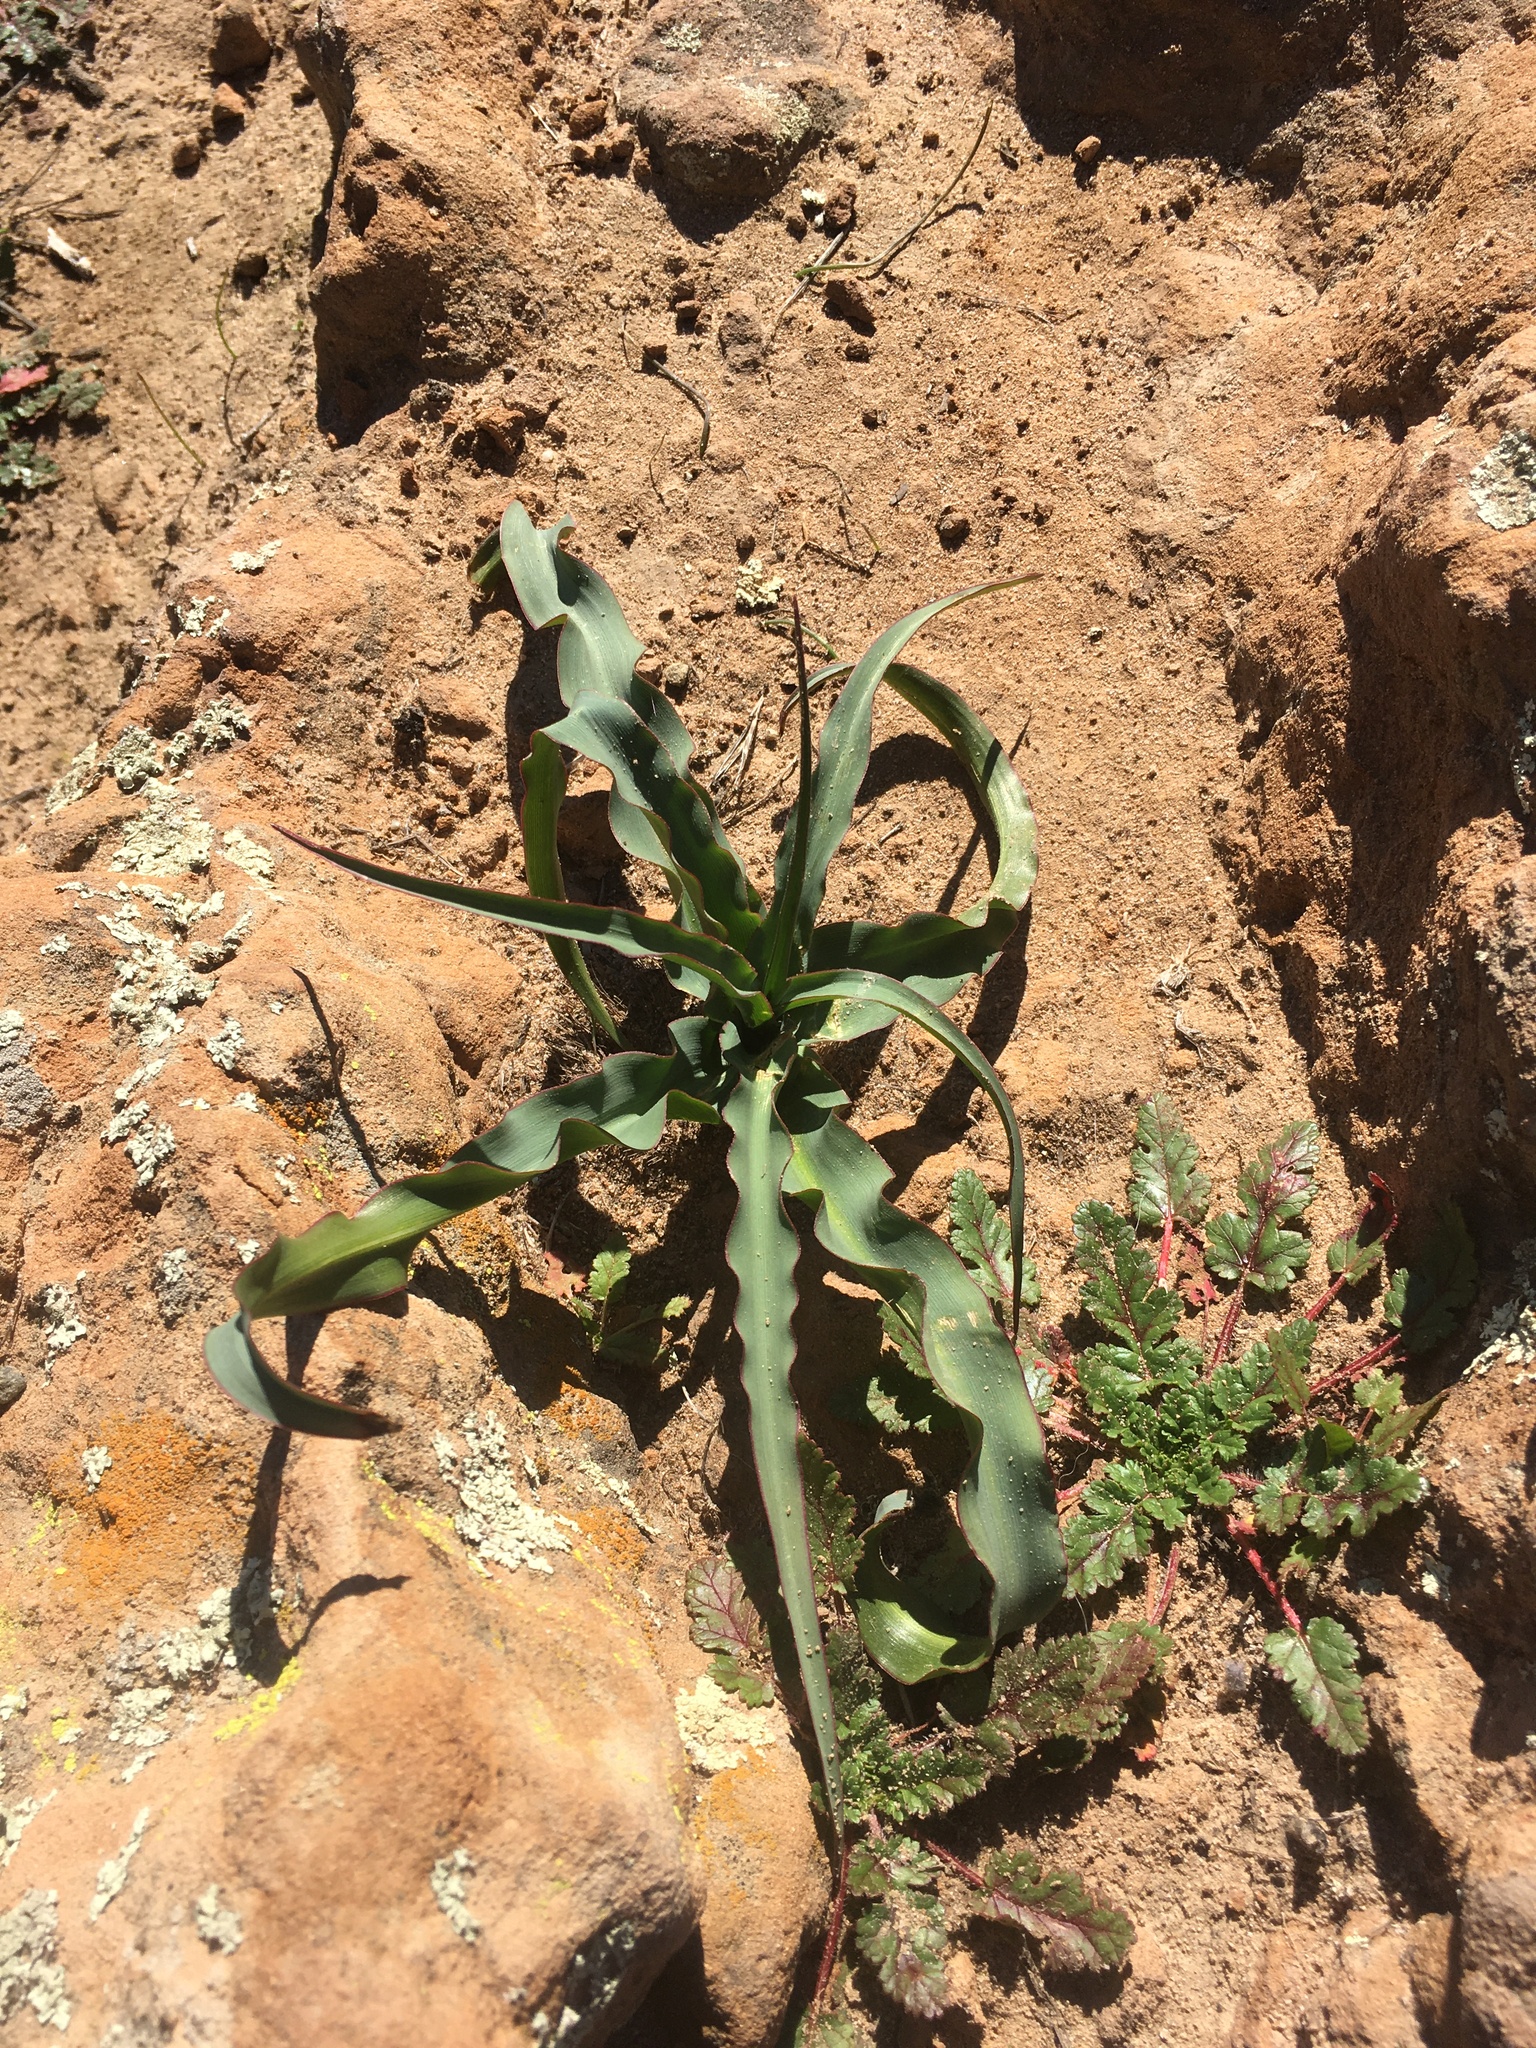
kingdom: Plantae
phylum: Tracheophyta
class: Liliopsida
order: Asparagales
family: Asparagaceae
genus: Chlorogalum
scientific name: Chlorogalum pomeridianum
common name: Amole
